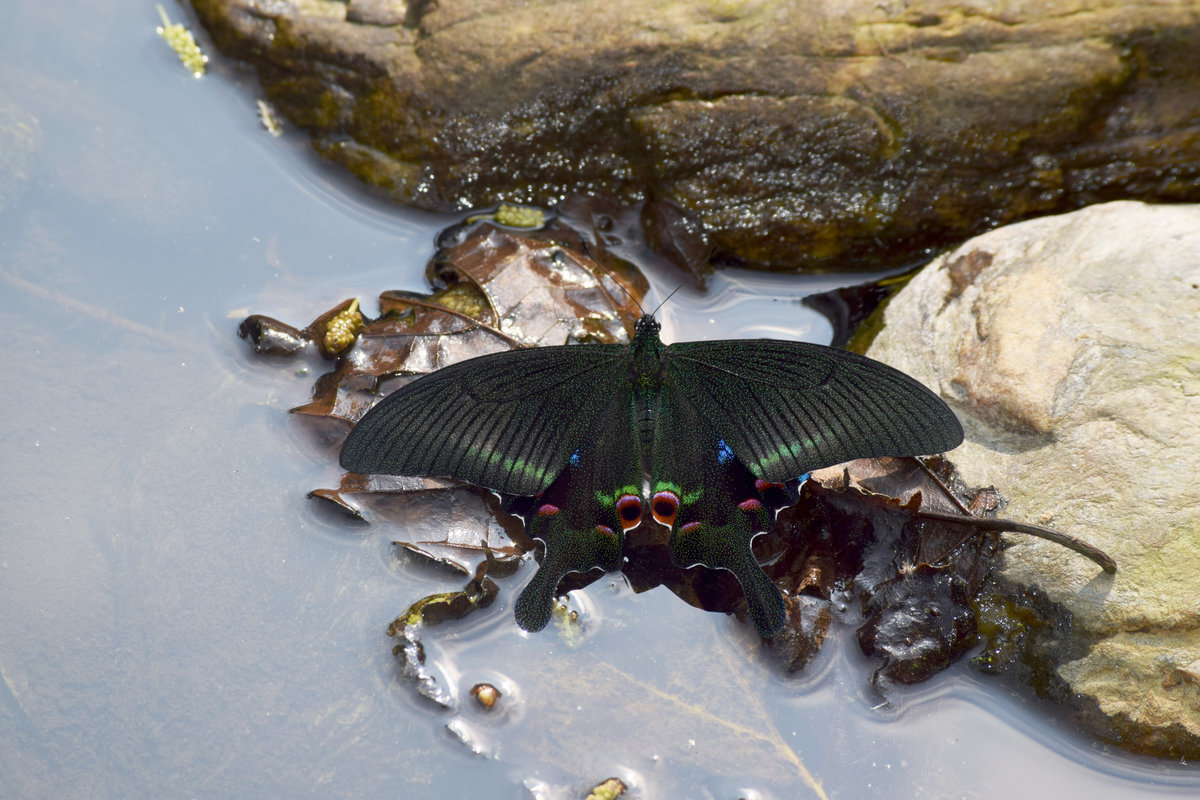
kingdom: Animalia
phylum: Arthropoda
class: Insecta
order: Lepidoptera
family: Papilionidae
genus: Papilio
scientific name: Papilio arcturus
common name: Blue peacock
